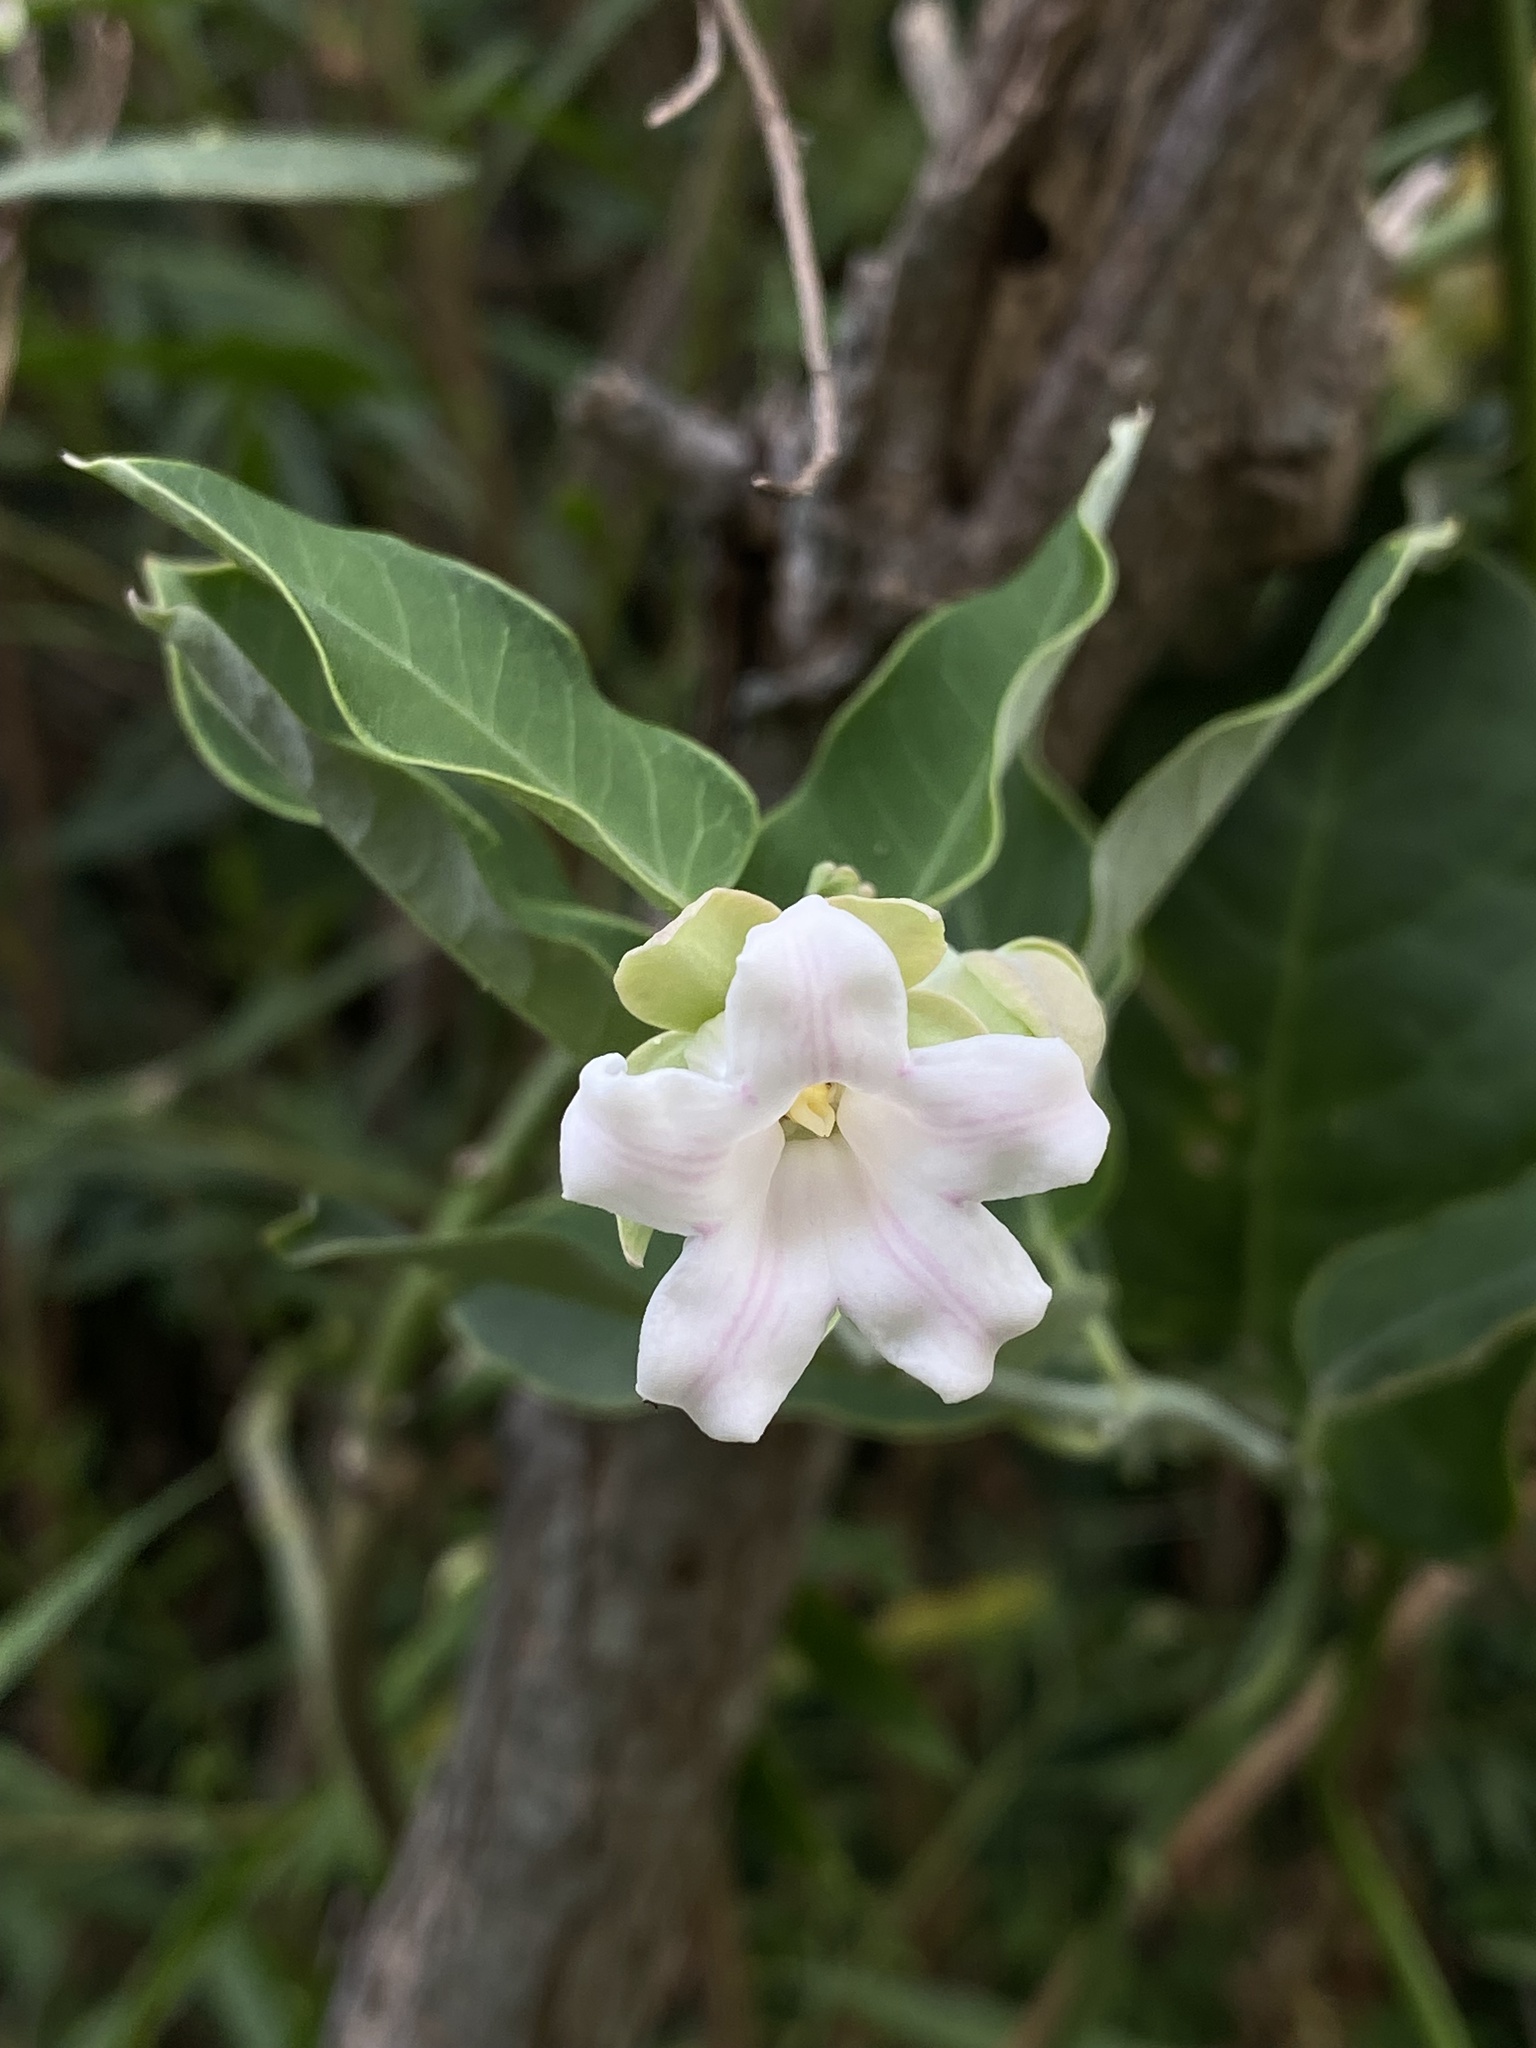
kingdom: Plantae
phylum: Tracheophyta
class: Magnoliopsida
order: Gentianales
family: Apocynaceae
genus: Araujia
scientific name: Araujia sericifera
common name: White bladderflower
